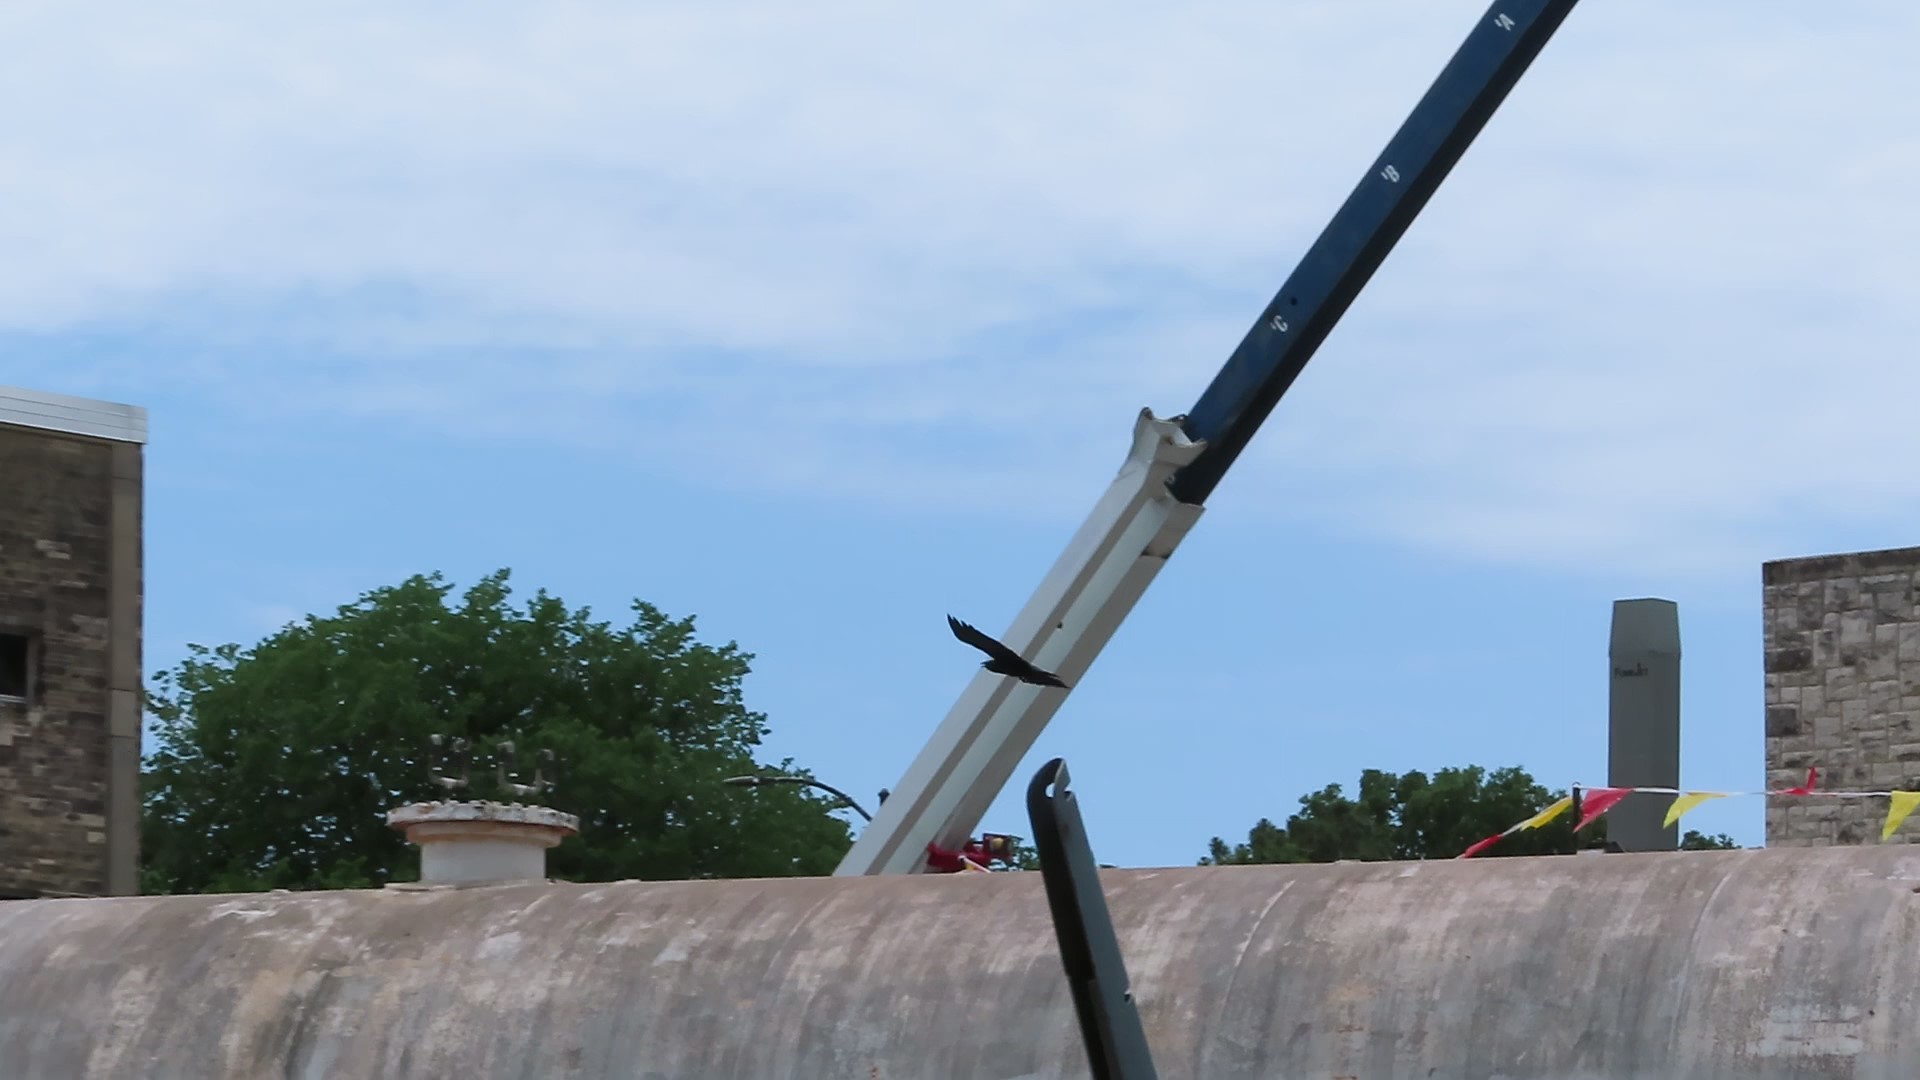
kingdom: Animalia
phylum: Chordata
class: Aves
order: Passeriformes
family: Corvidae
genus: Corvus
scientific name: Corvus ossifragus
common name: Fish crow
